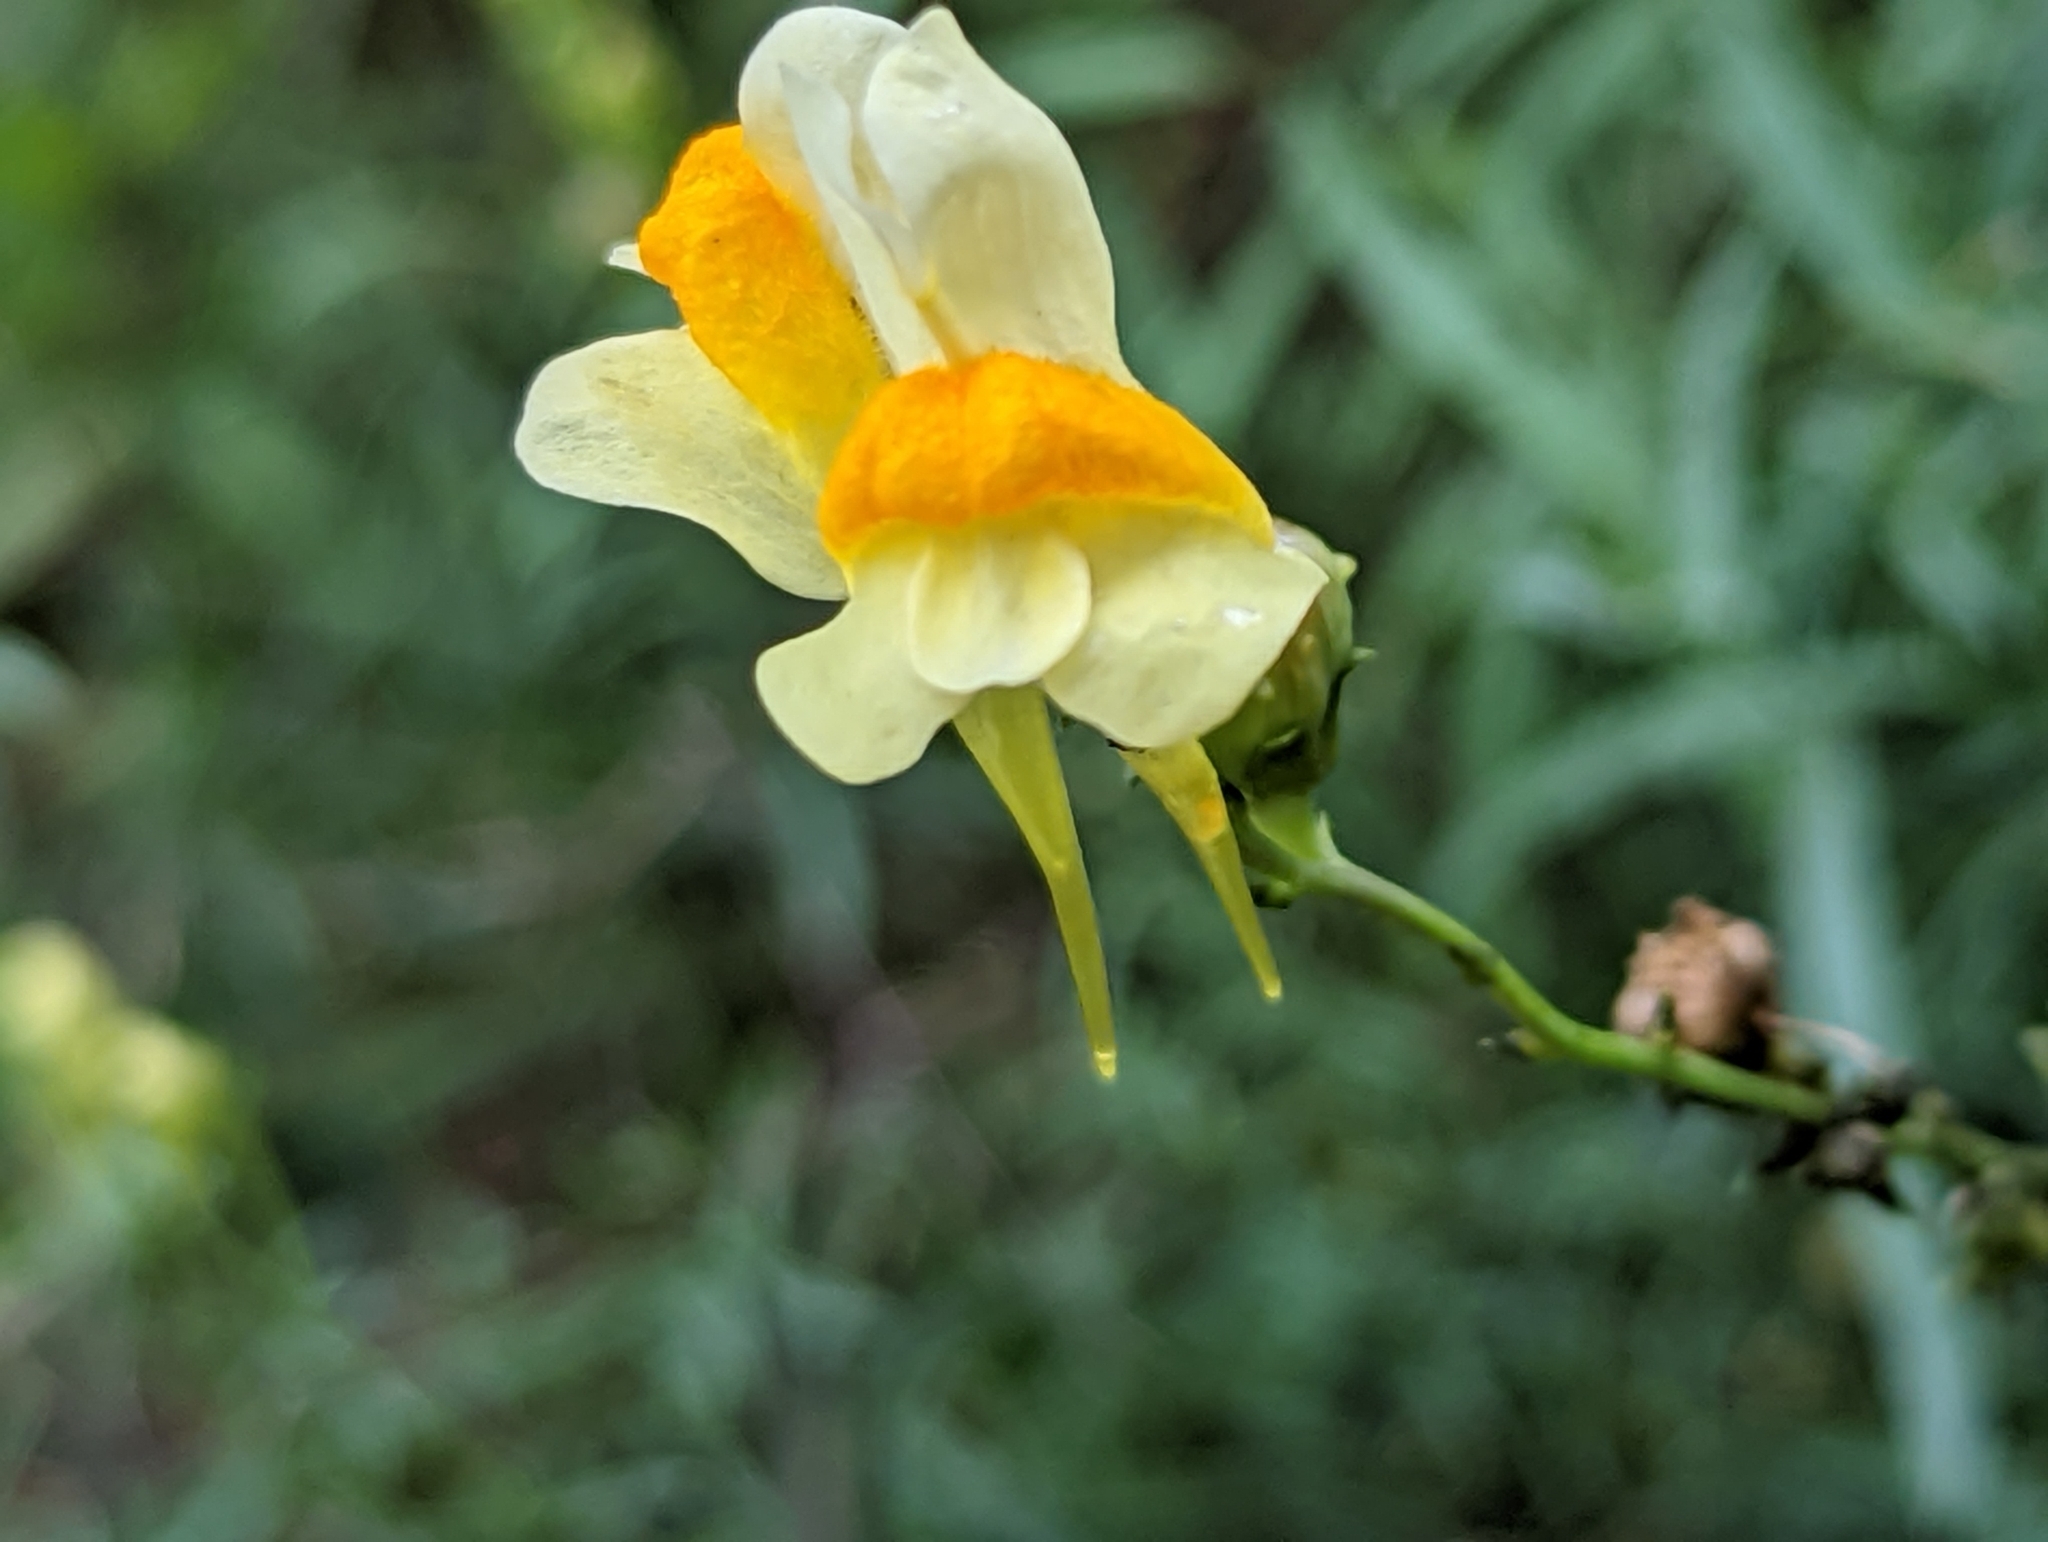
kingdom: Plantae
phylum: Tracheophyta
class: Magnoliopsida
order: Lamiales
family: Plantaginaceae
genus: Linaria
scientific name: Linaria vulgaris
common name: Butter and eggs
